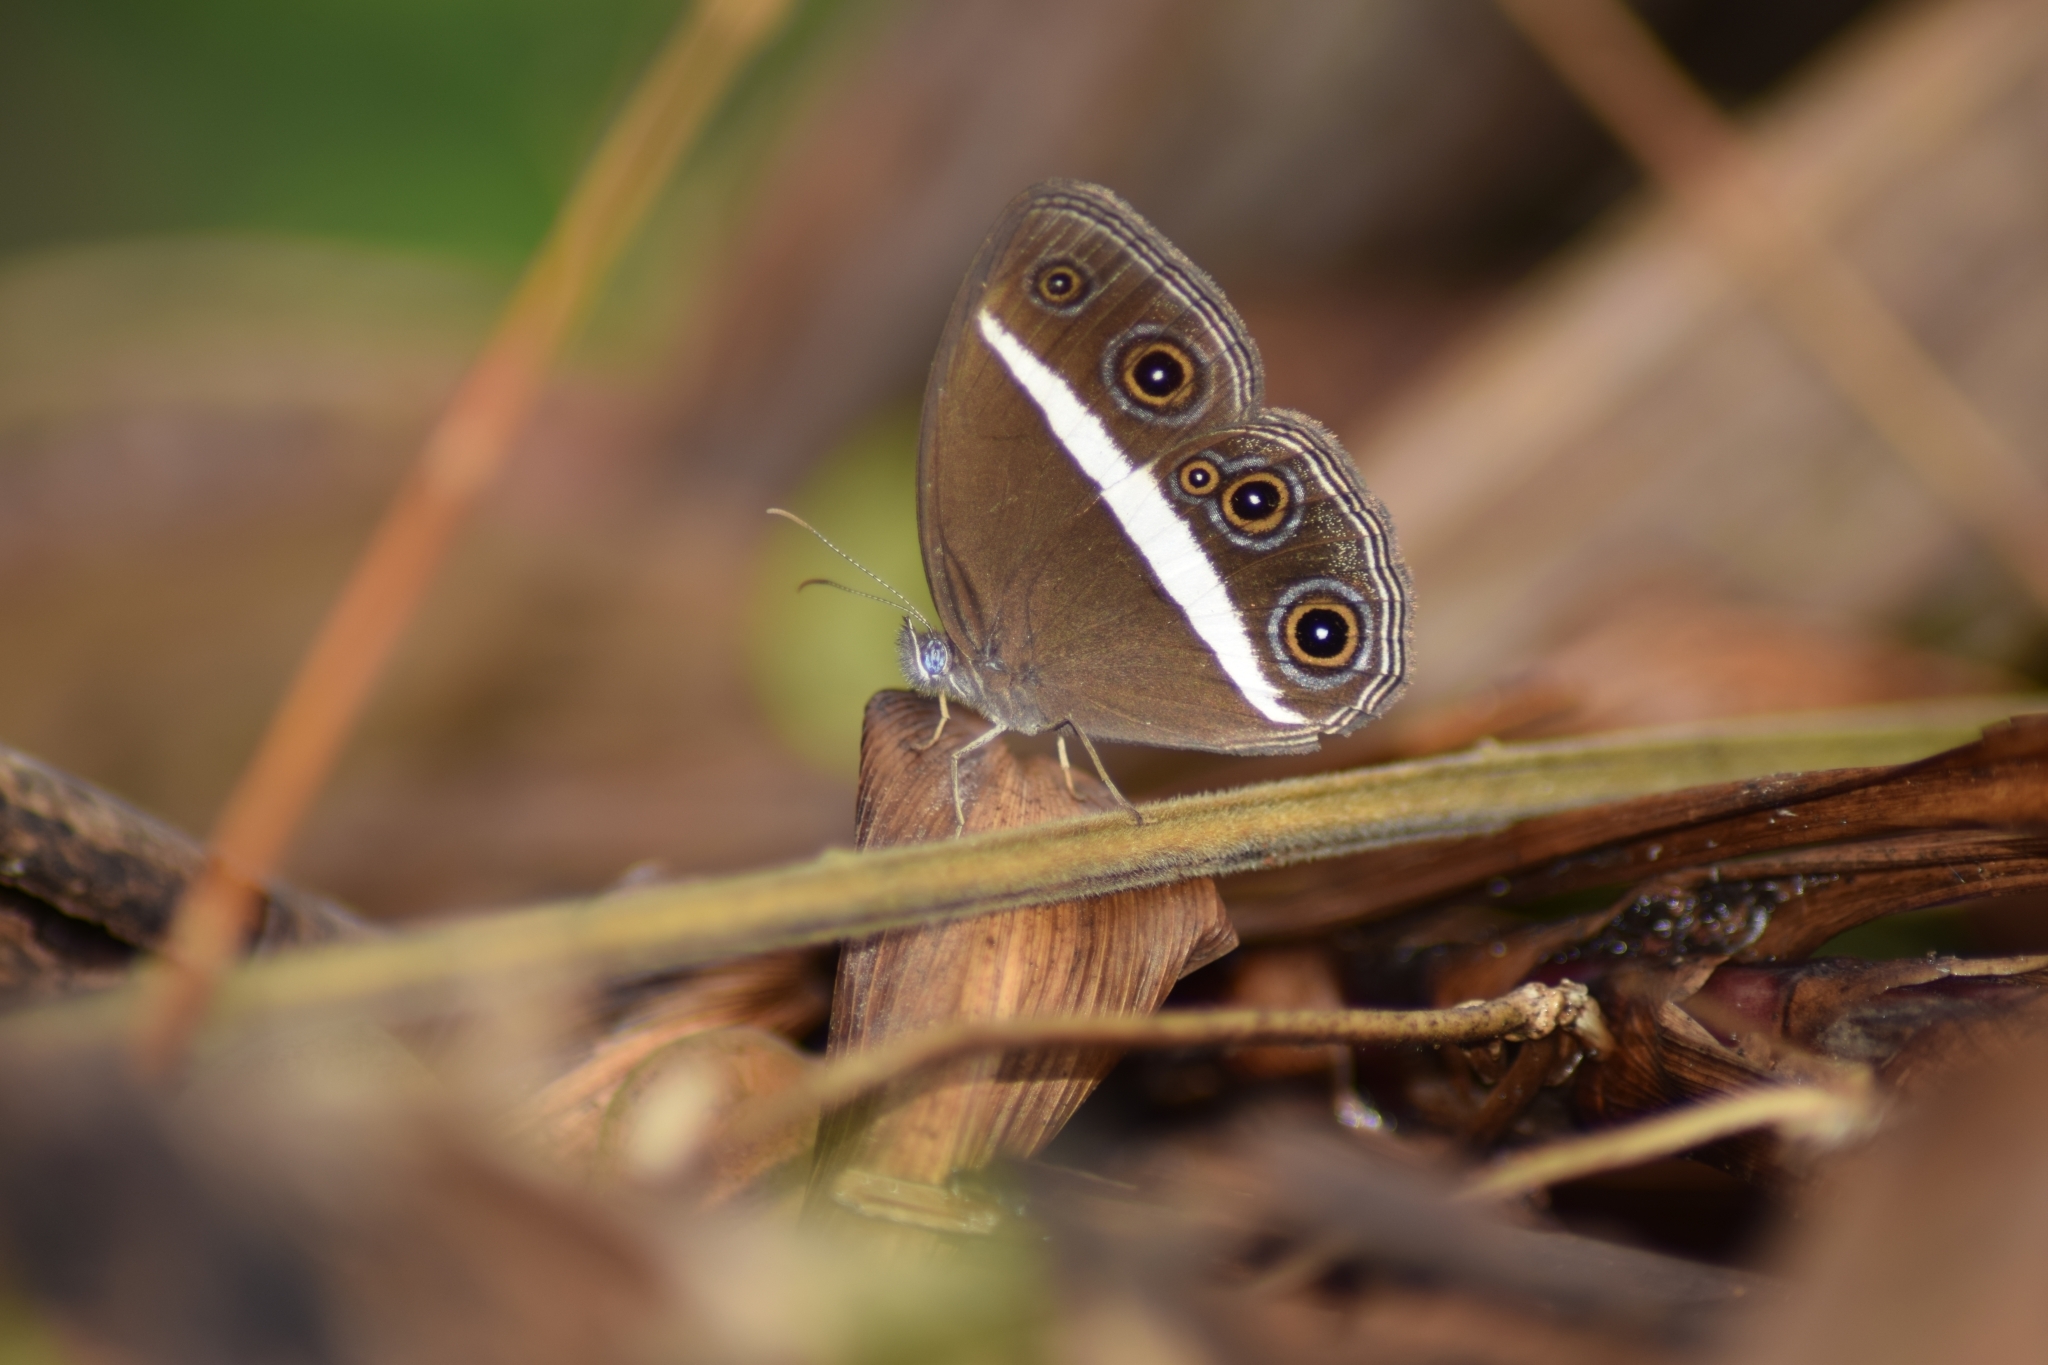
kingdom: Animalia
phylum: Arthropoda
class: Insecta
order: Lepidoptera
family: Nymphalidae
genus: Orsotriaena
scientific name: Orsotriaena medus
